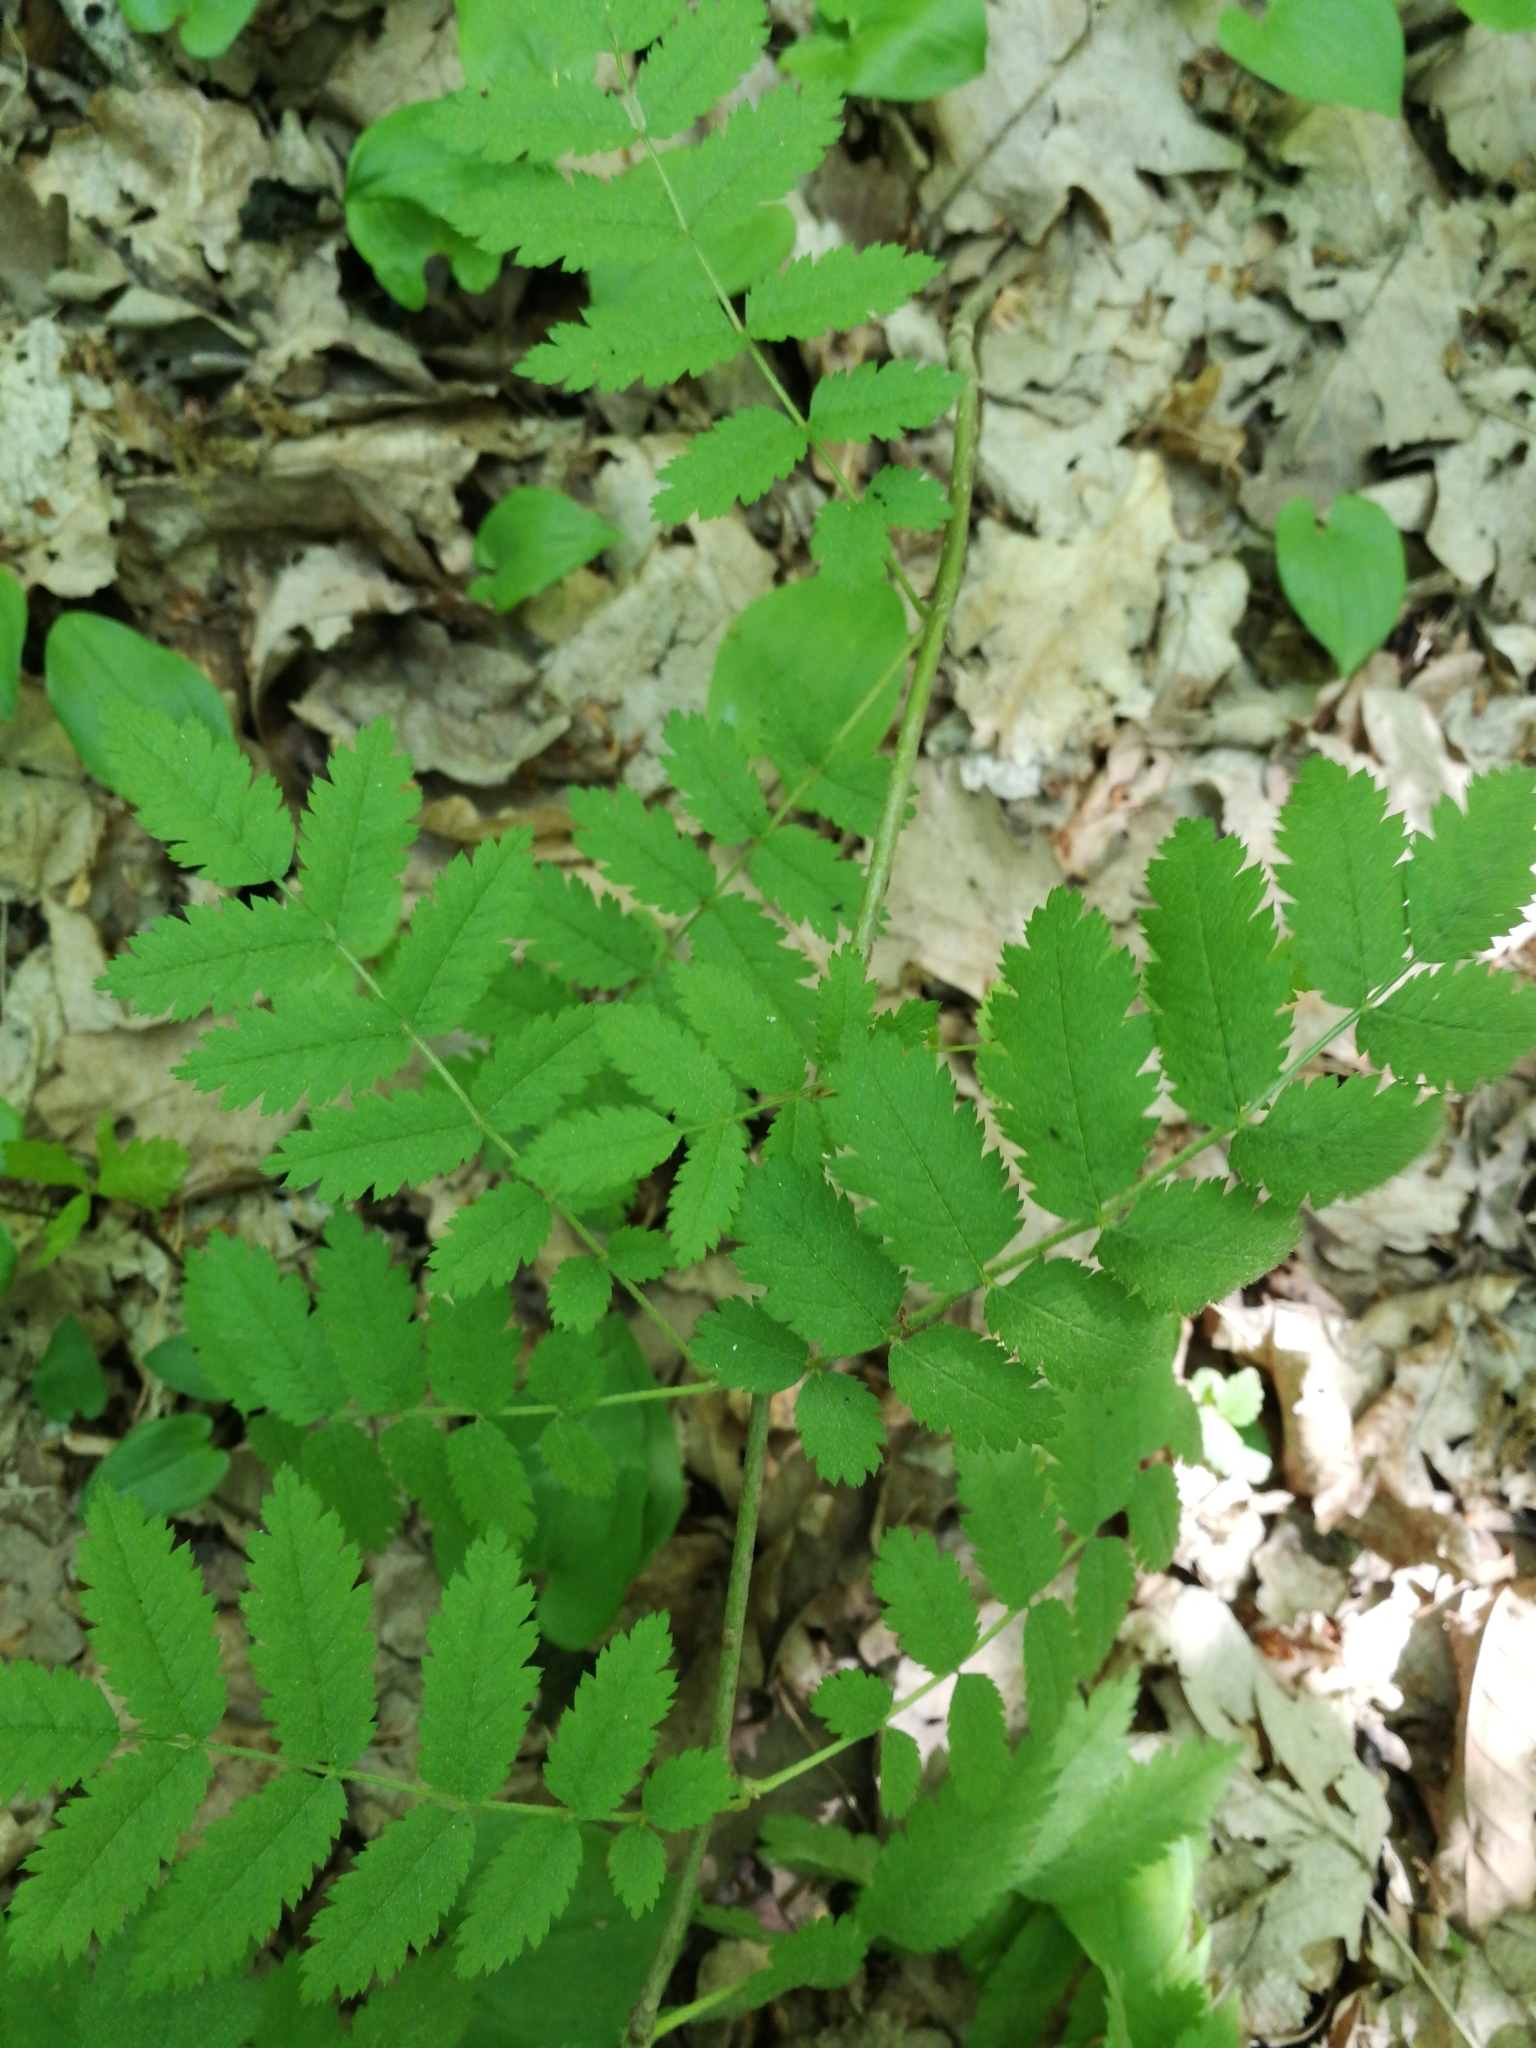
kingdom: Plantae
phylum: Tracheophyta
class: Magnoliopsida
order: Rosales
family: Rosaceae
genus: Sorbus
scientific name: Sorbus aucuparia
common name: Rowan
